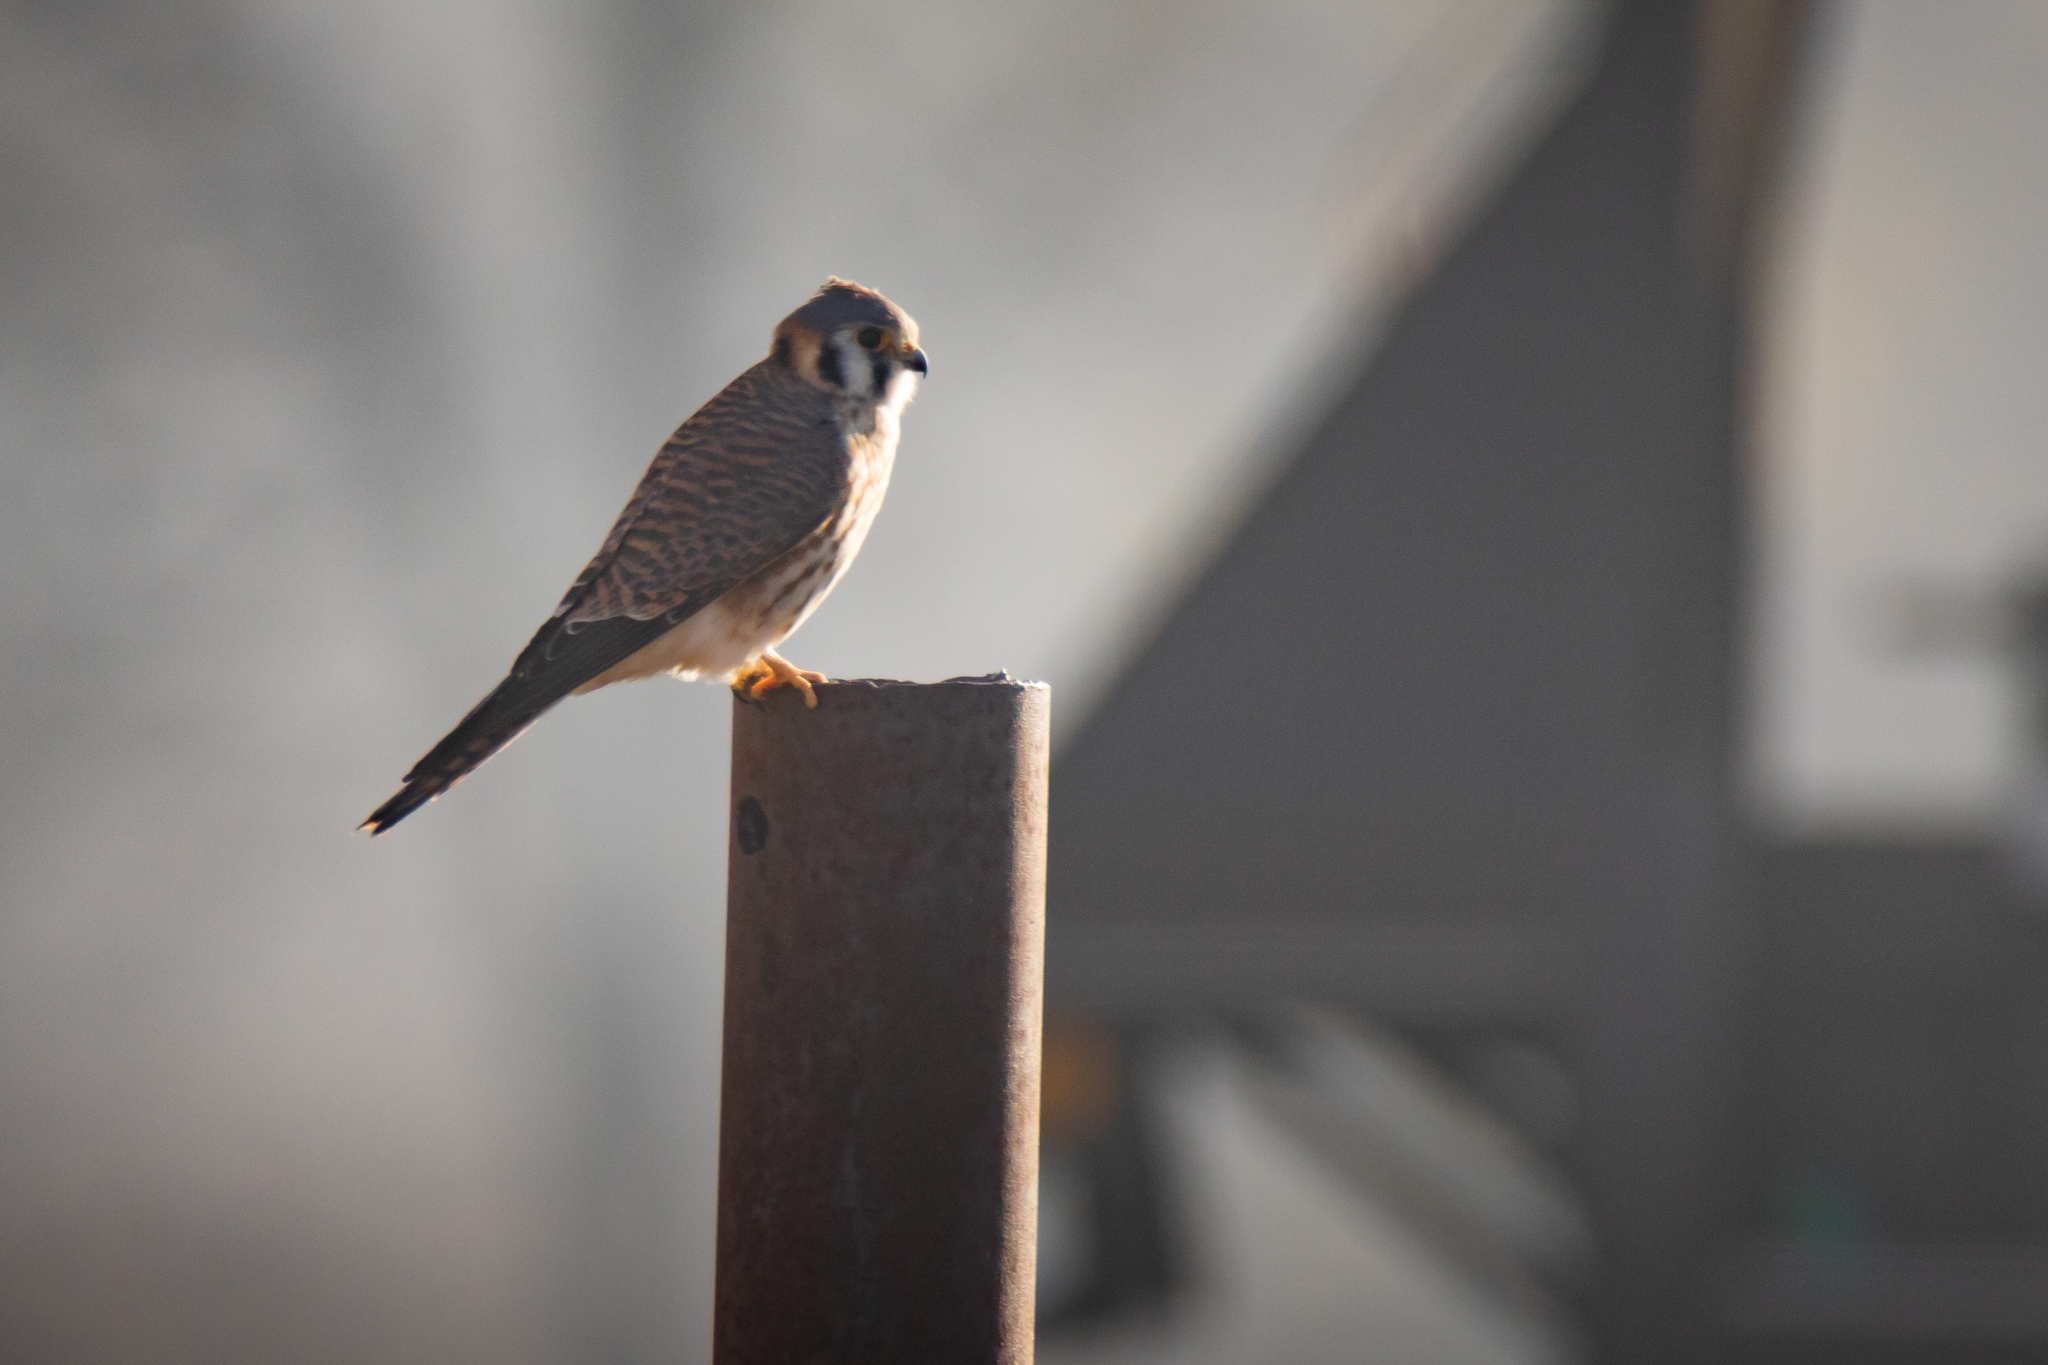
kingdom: Animalia
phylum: Chordata
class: Aves
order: Falconiformes
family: Falconidae
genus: Falco
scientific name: Falco sparverius
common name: American kestrel
